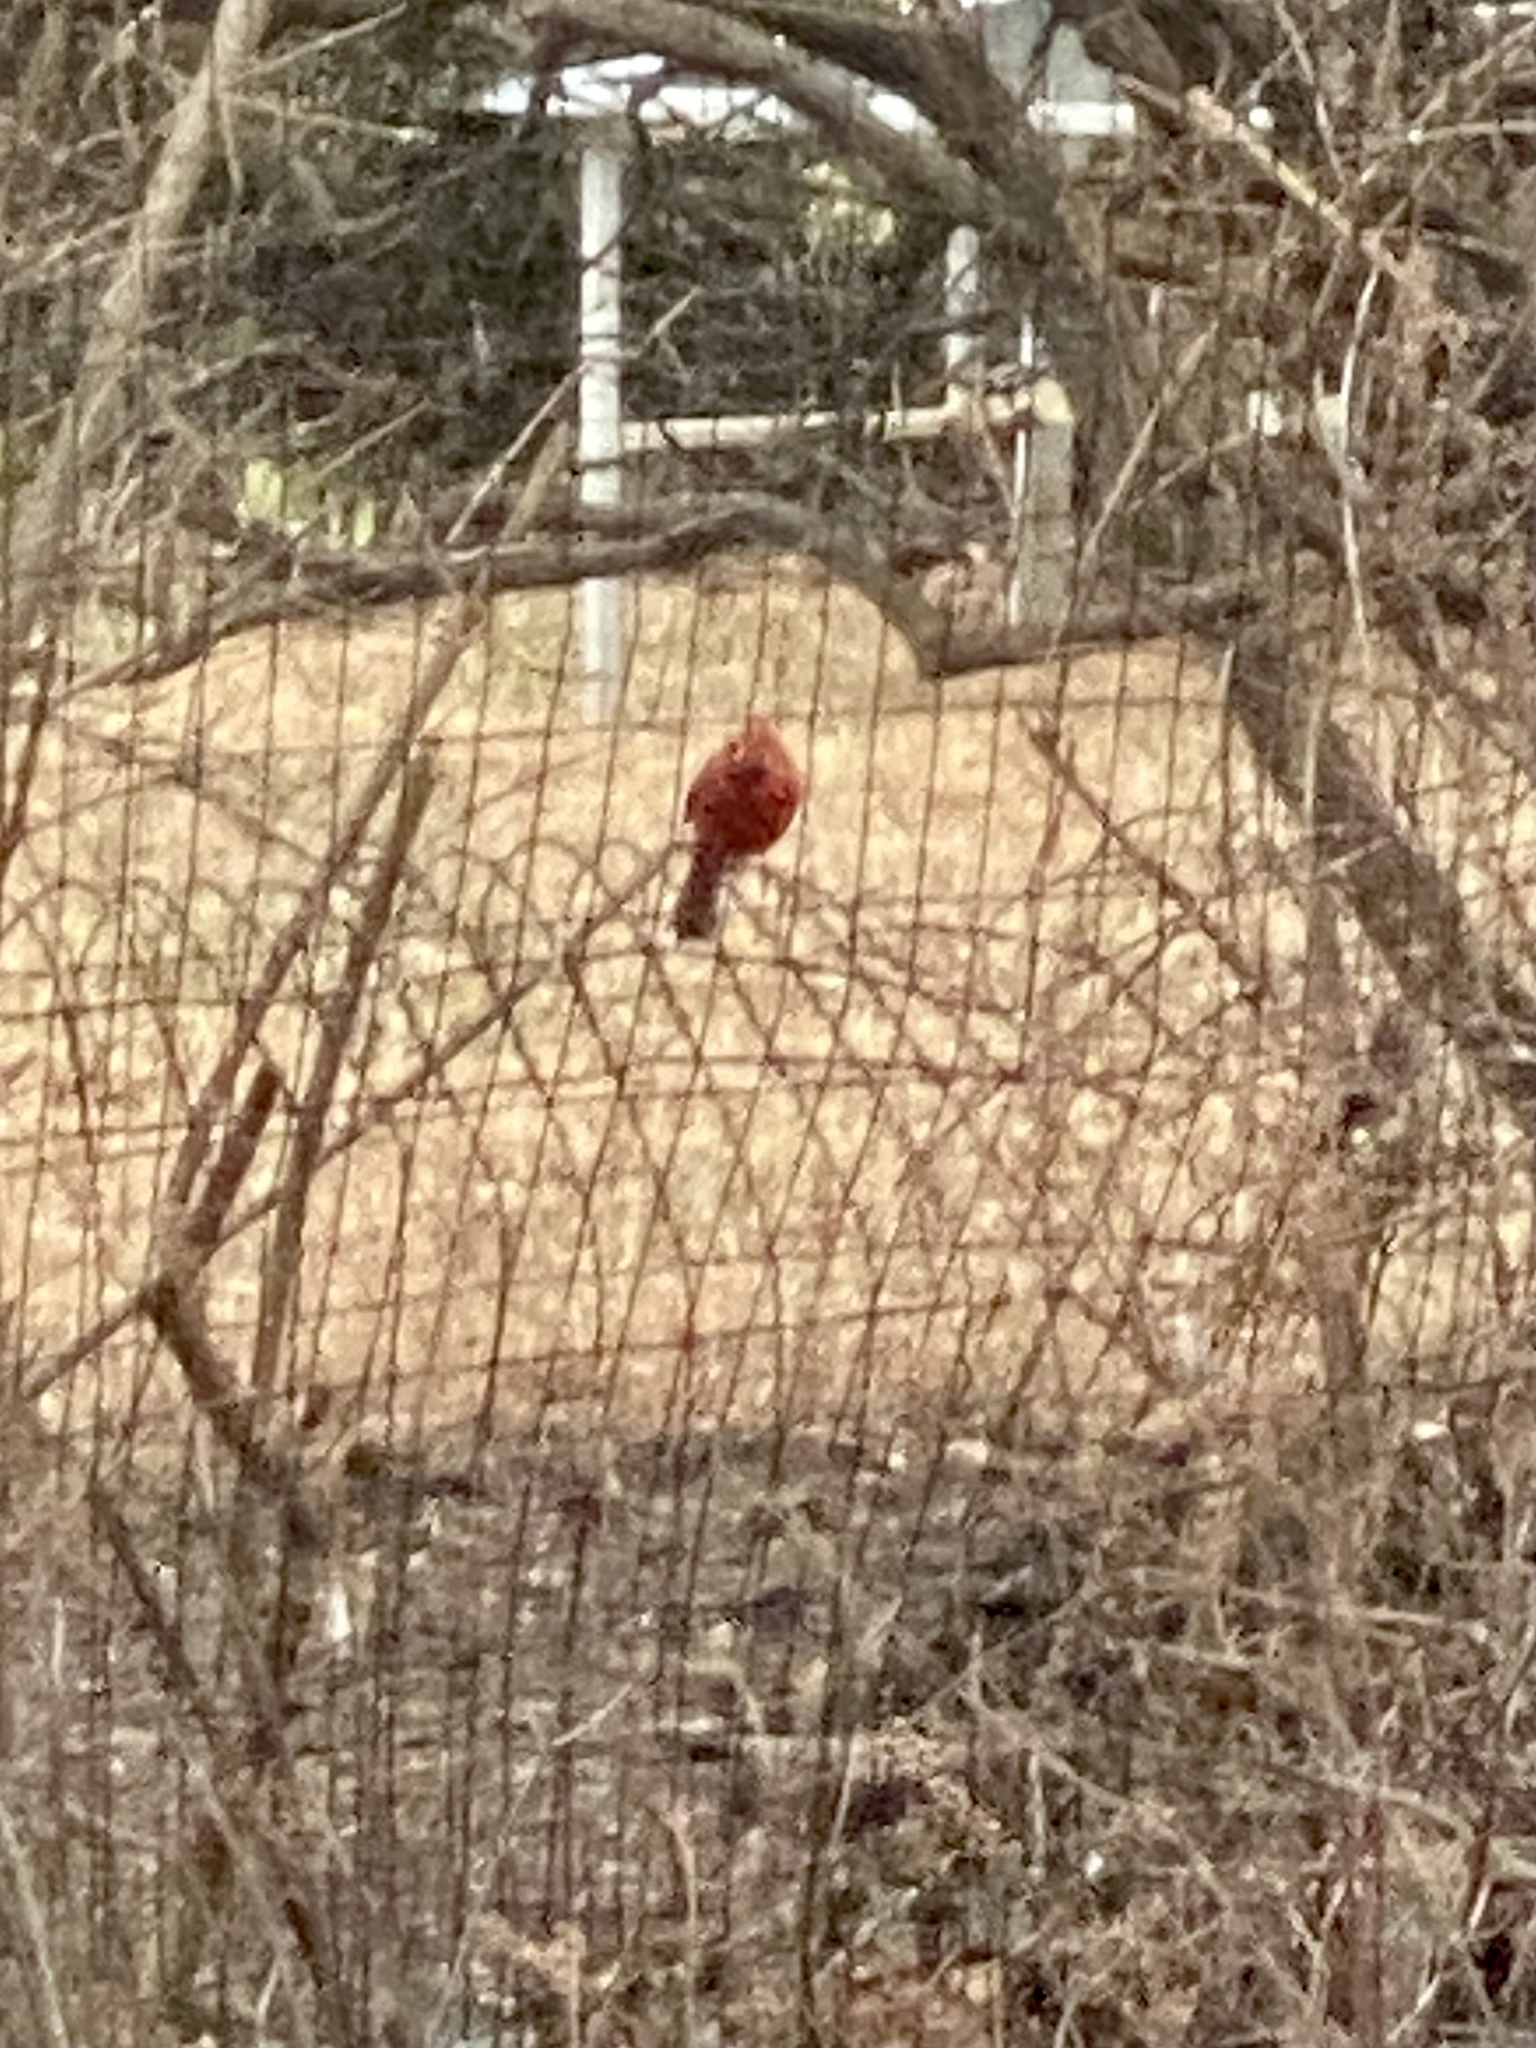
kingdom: Animalia
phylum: Chordata
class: Aves
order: Passeriformes
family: Cardinalidae
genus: Cardinalis
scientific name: Cardinalis cardinalis
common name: Northern cardinal
